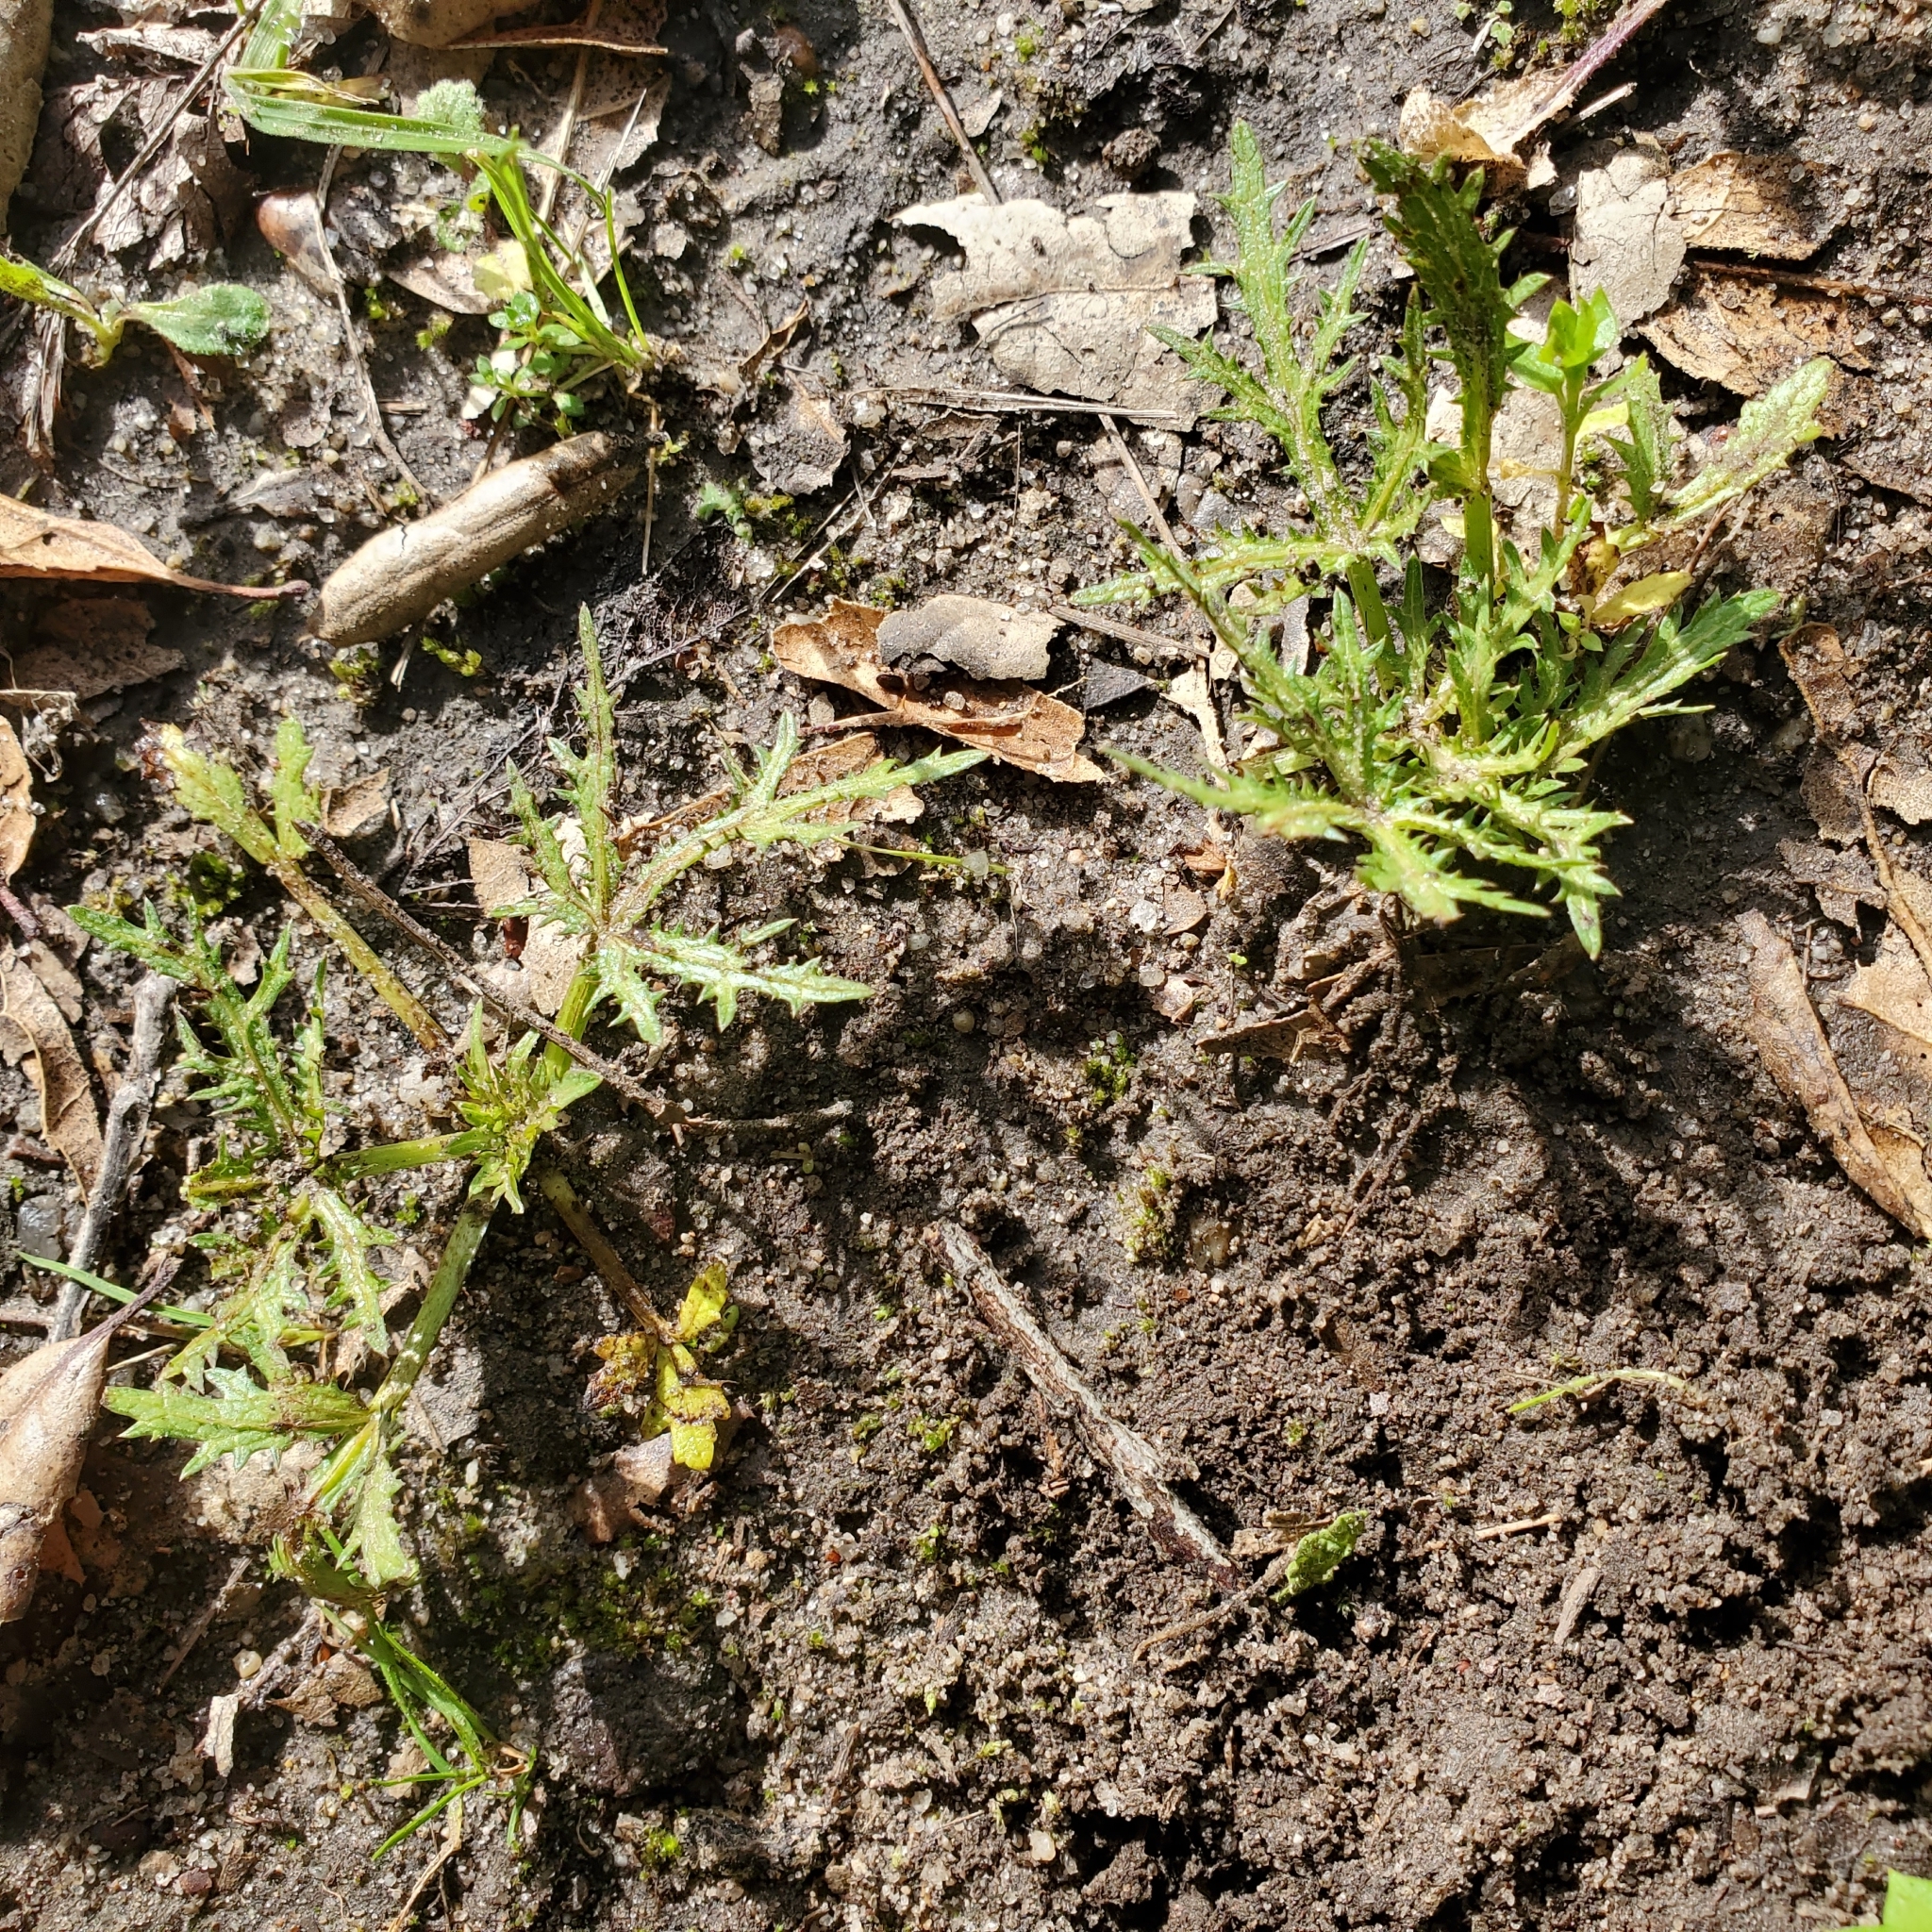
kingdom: Plantae
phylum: Tracheophyta
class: Magnoliopsida
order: Apiales
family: Apiaceae
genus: Sanicula
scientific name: Sanicula arguta
